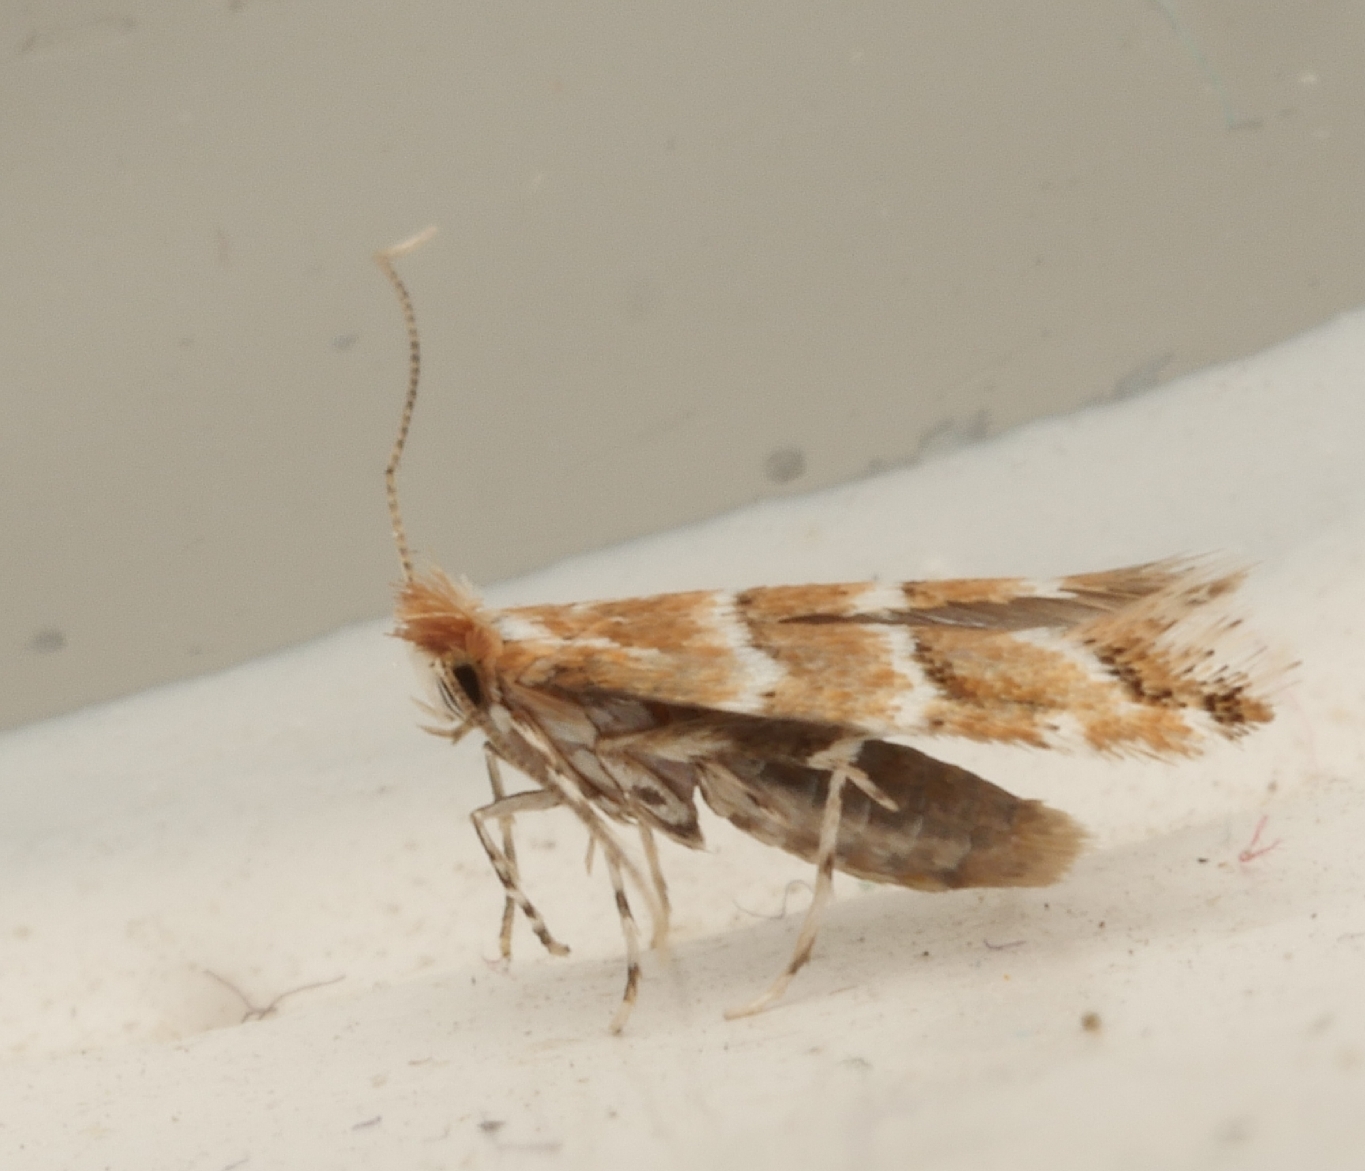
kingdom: Animalia
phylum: Arthropoda
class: Insecta
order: Lepidoptera
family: Gracillariidae
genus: Cameraria
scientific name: Cameraria ohridella
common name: Horse-chestnut leaf-miner
